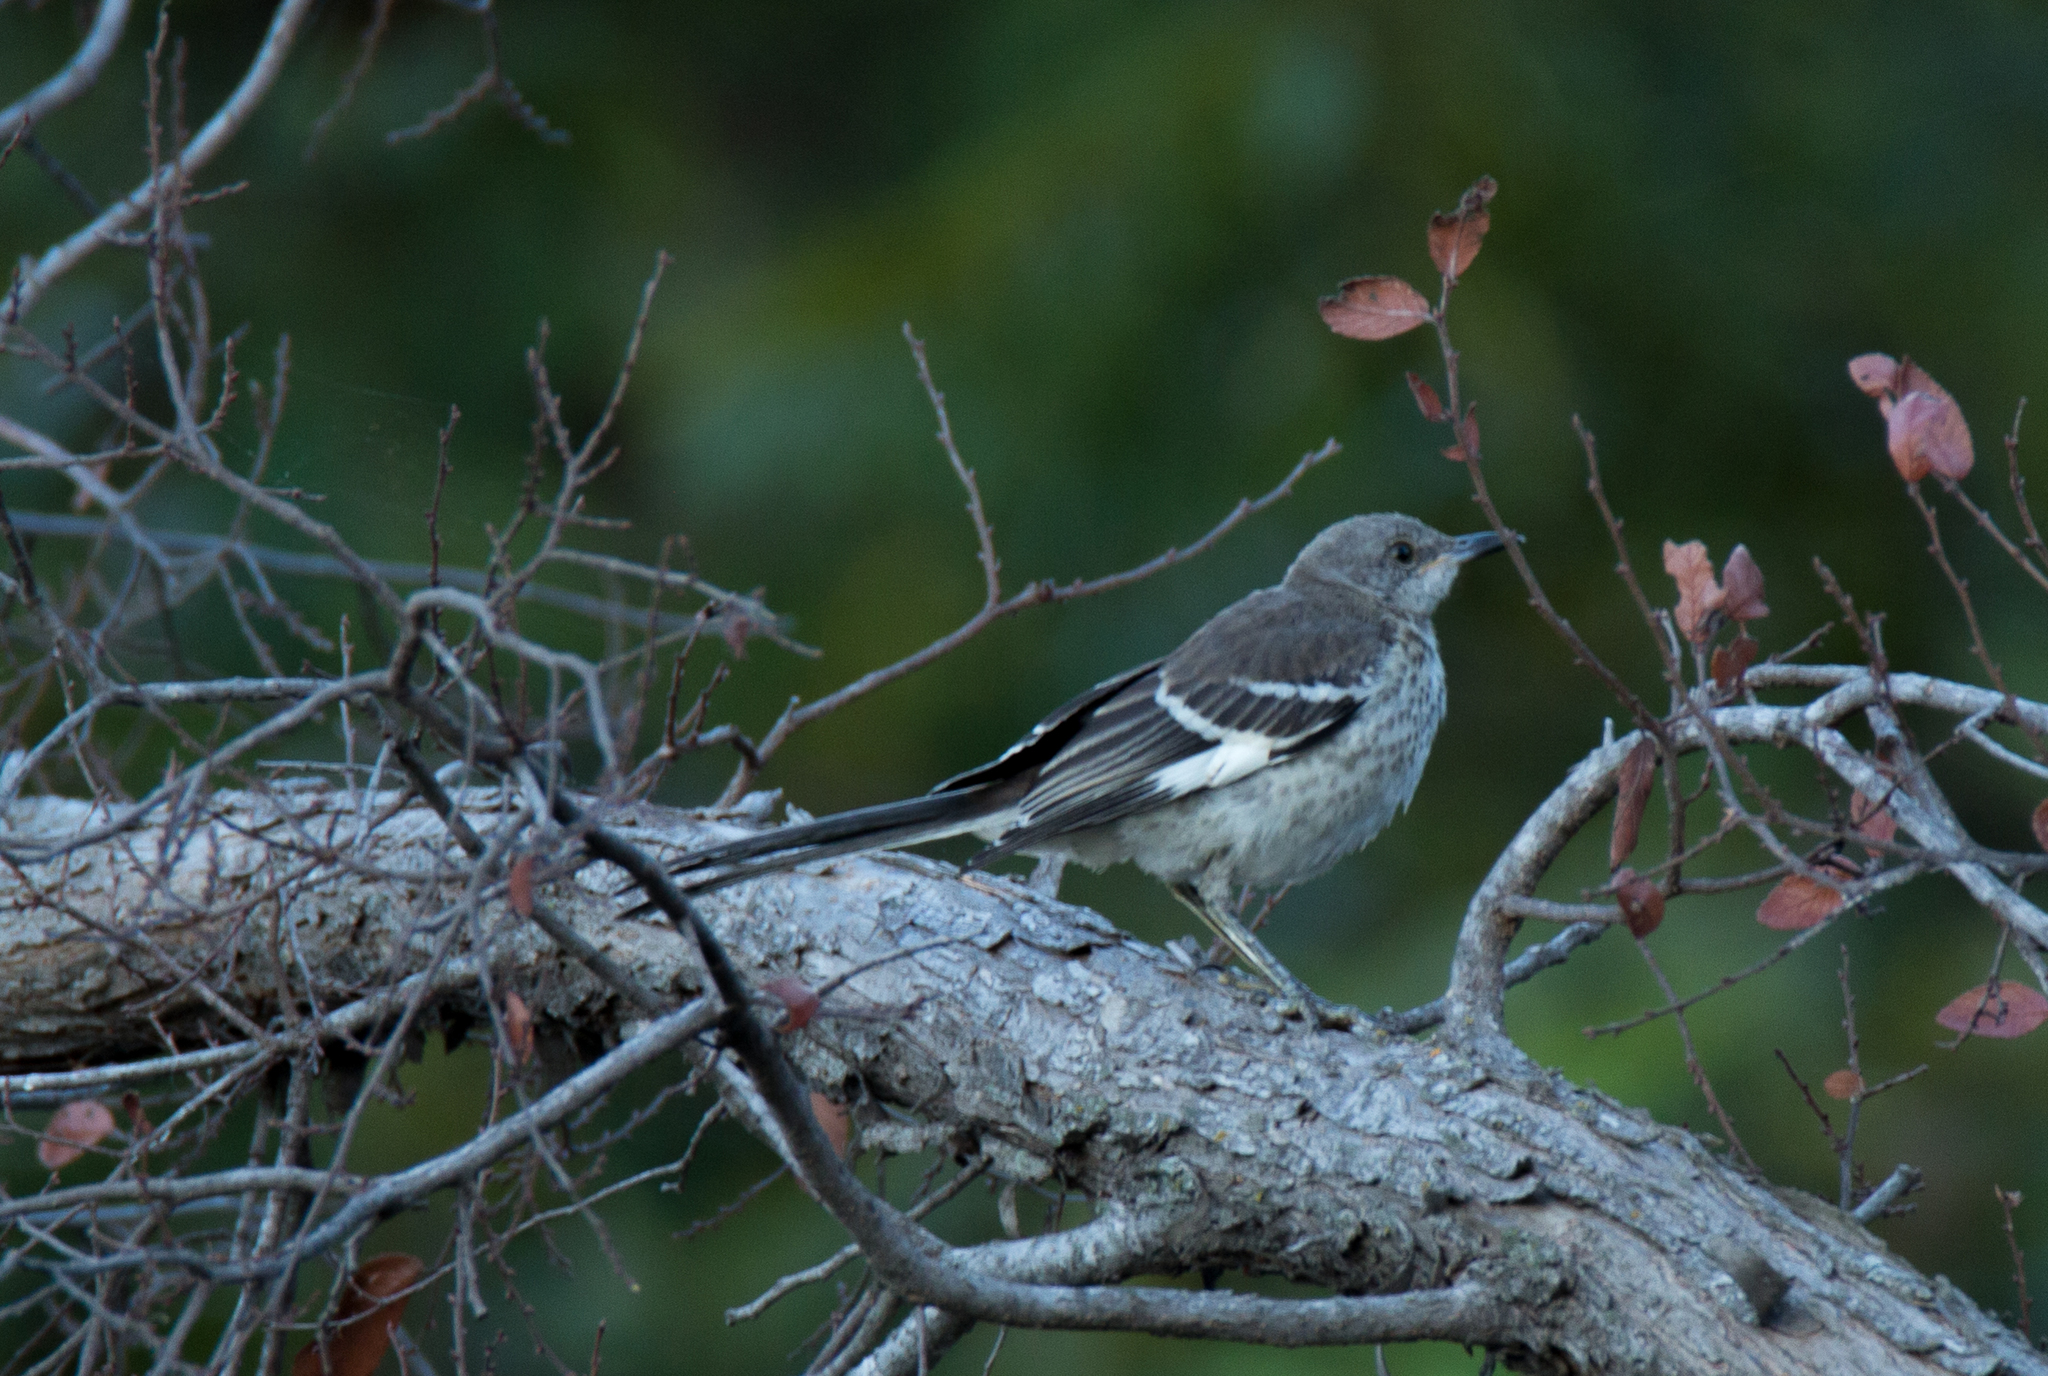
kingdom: Animalia
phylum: Chordata
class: Aves
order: Passeriformes
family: Mimidae
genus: Mimus
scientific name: Mimus polyglottos
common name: Northern mockingbird
